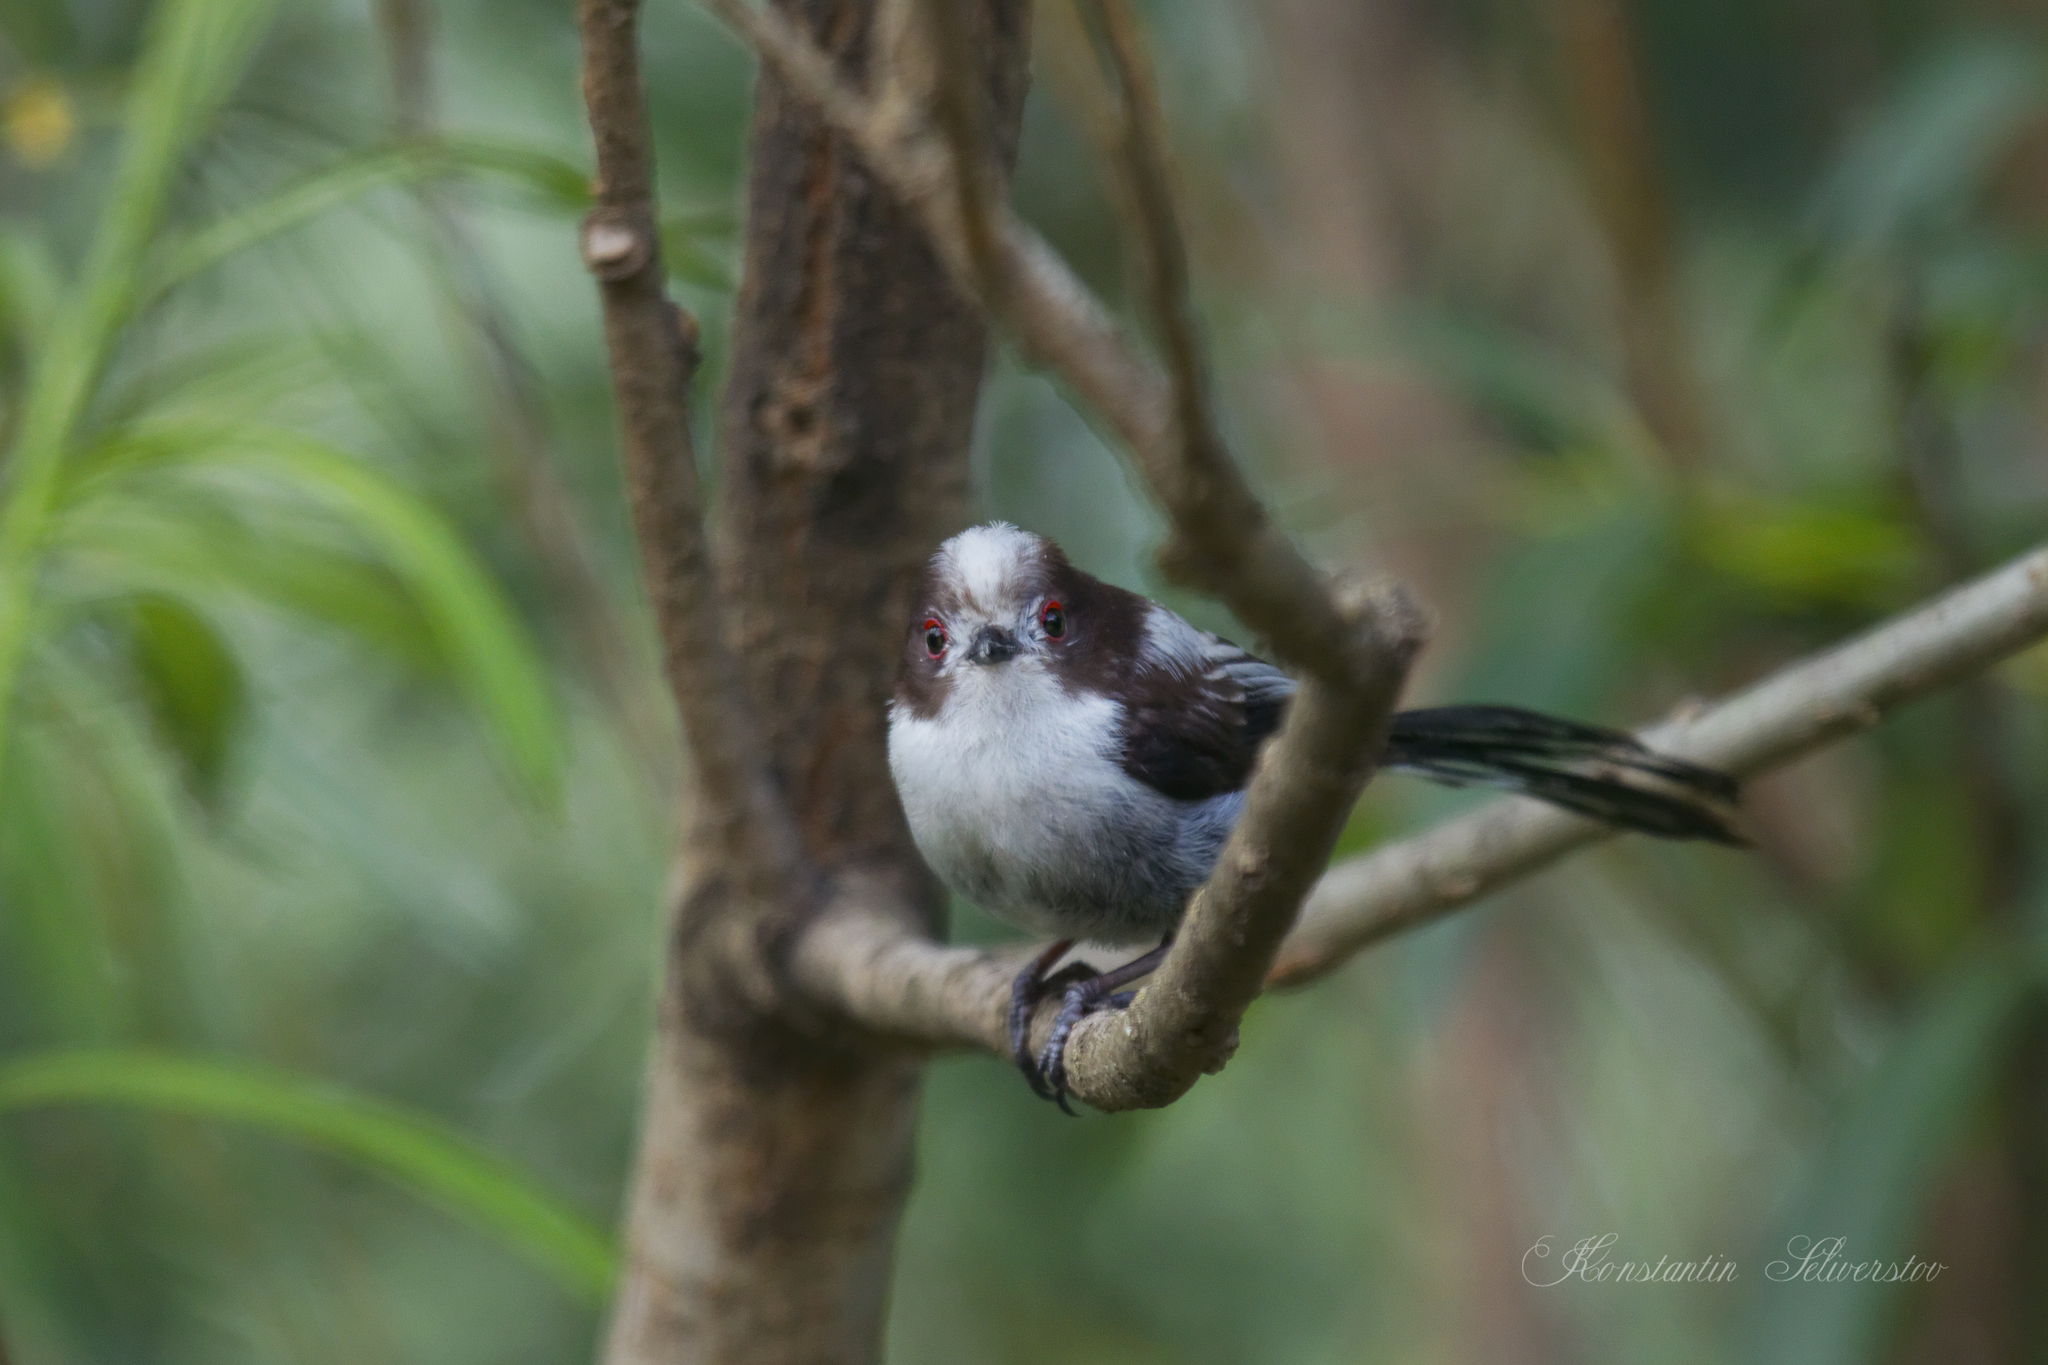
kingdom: Animalia
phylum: Chordata
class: Aves
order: Passeriformes
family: Aegithalidae
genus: Aegithalos
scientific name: Aegithalos caudatus
